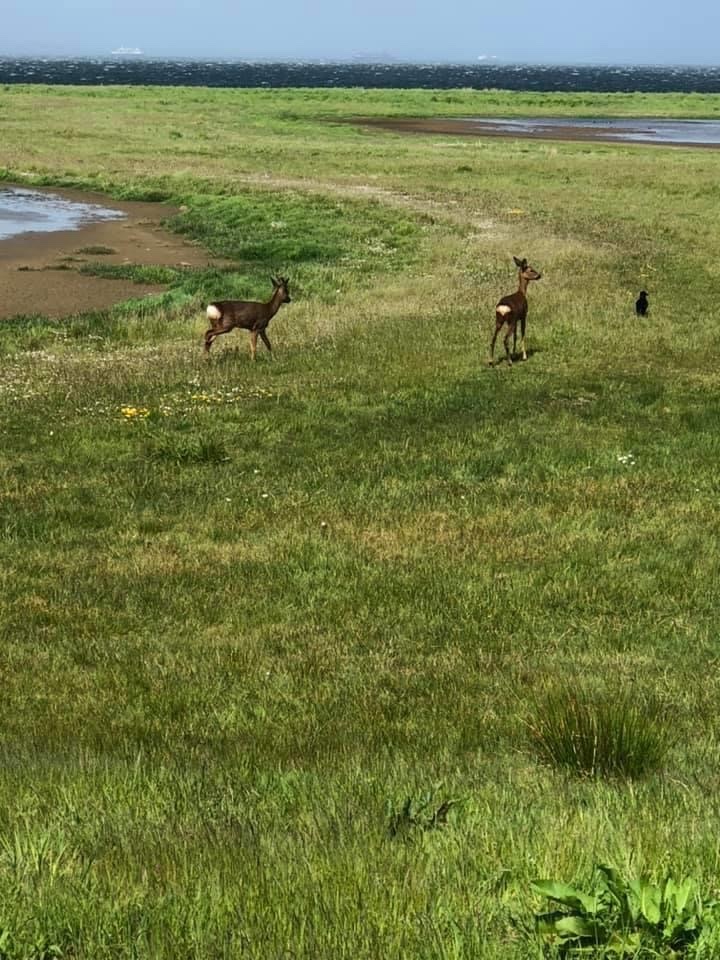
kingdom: Animalia
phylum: Chordata
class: Mammalia
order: Artiodactyla
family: Cervidae
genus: Capreolus
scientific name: Capreolus capreolus
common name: Western roe deer
